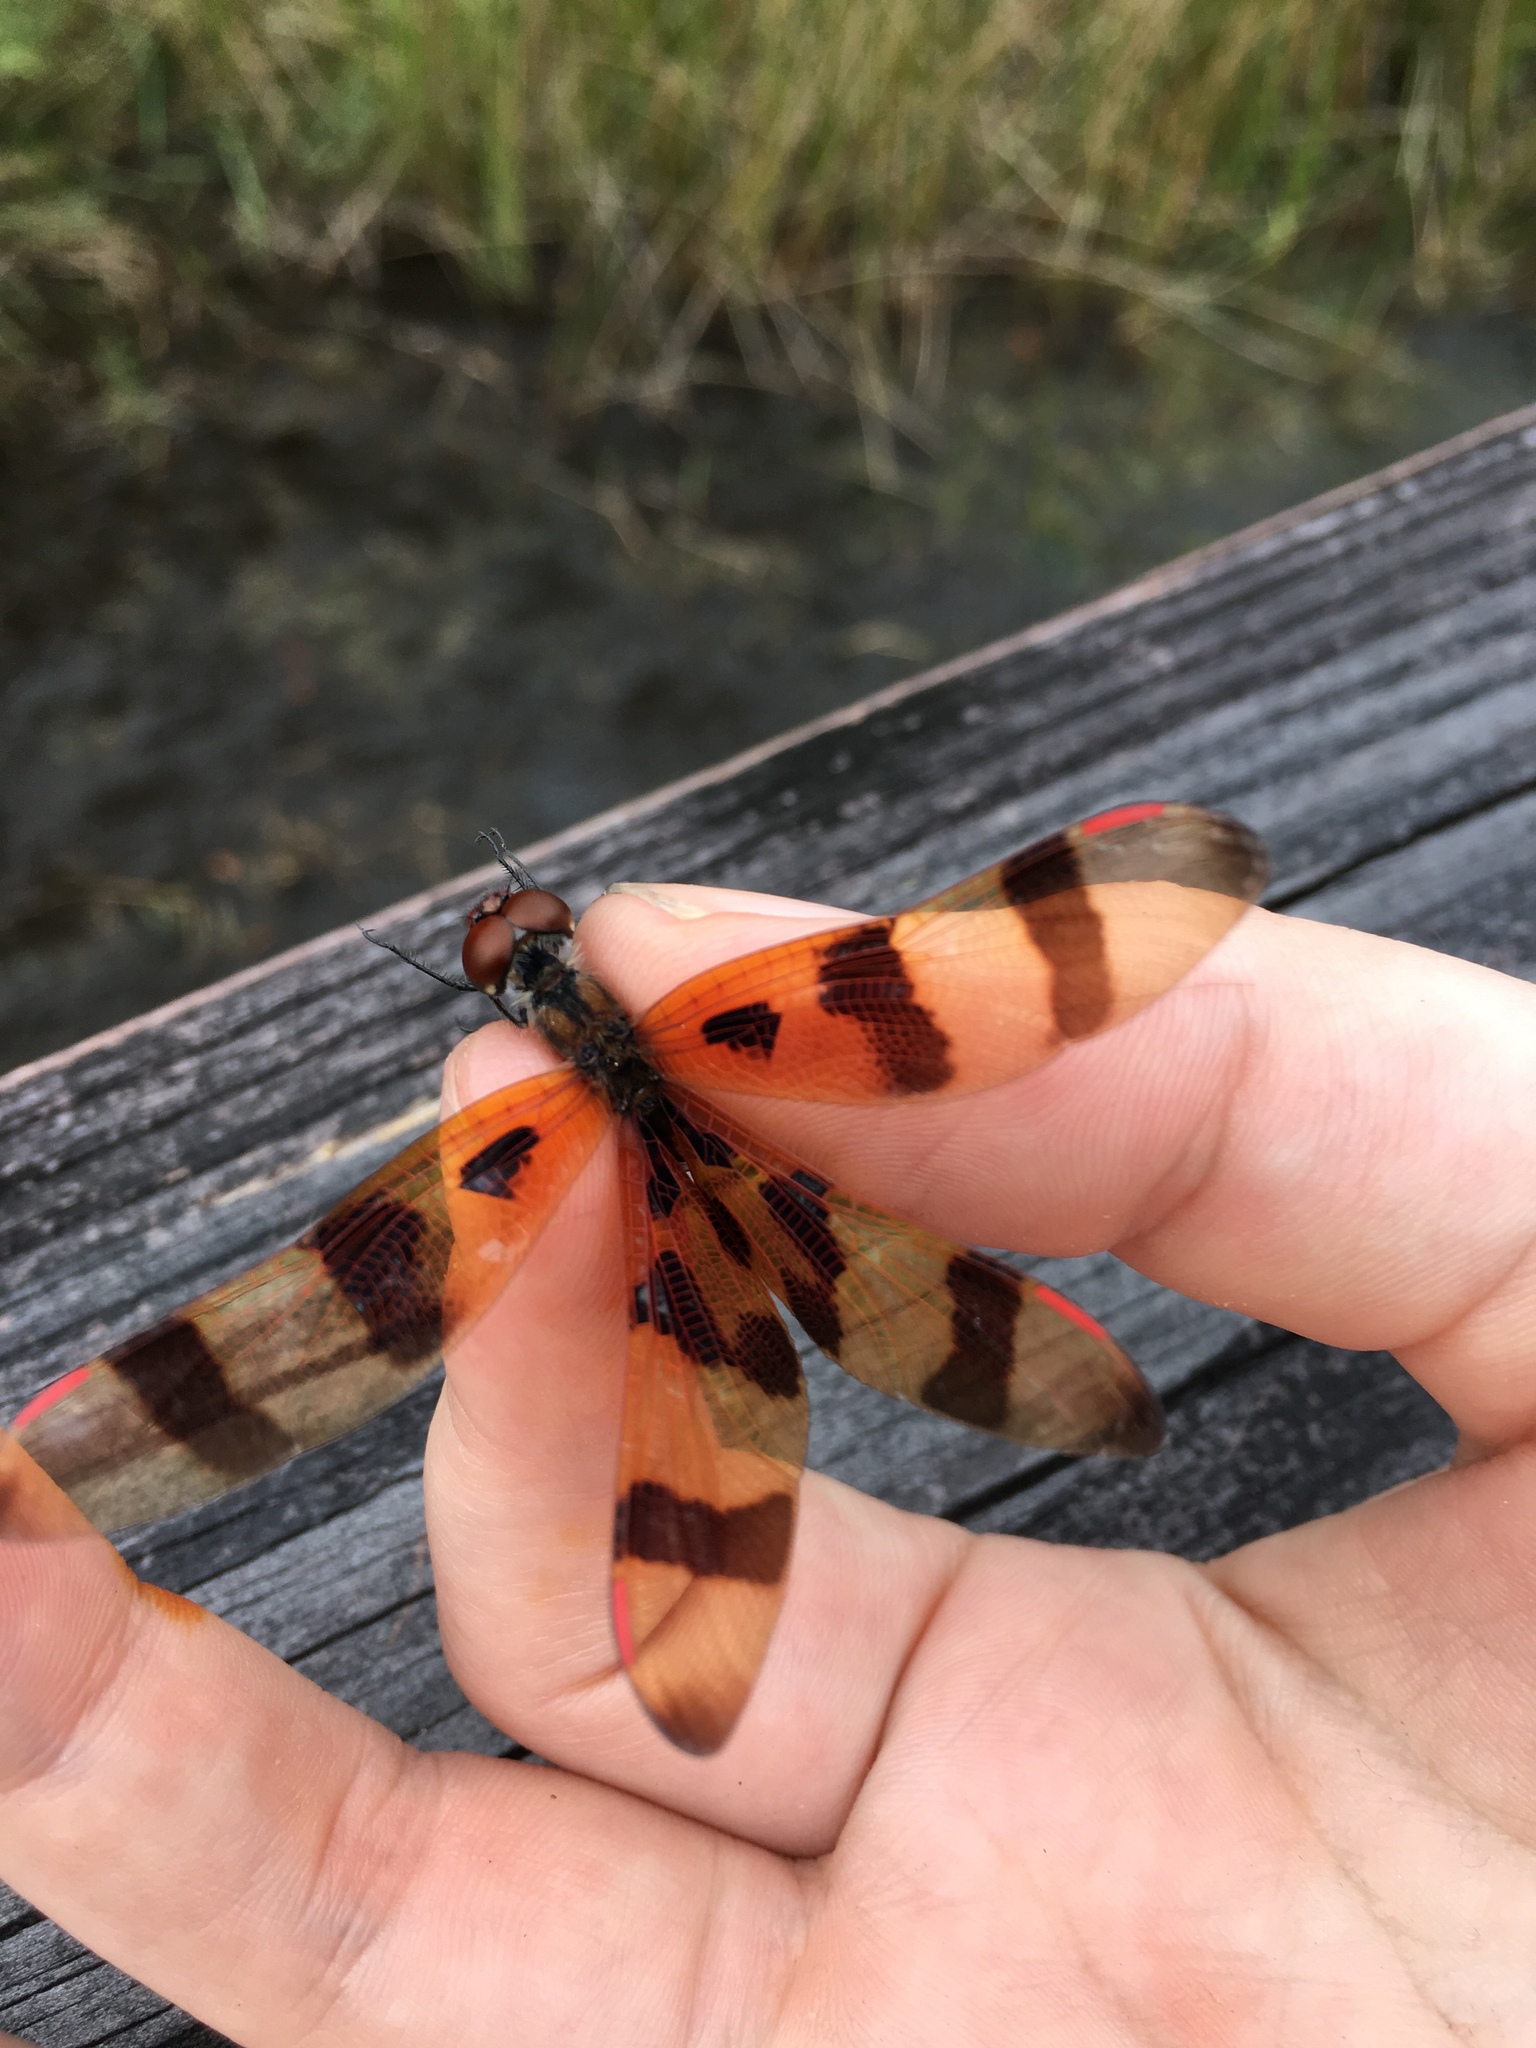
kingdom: Animalia
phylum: Arthropoda
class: Insecta
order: Odonata
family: Libellulidae
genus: Celithemis
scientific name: Celithemis eponina
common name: Halloween pennant
